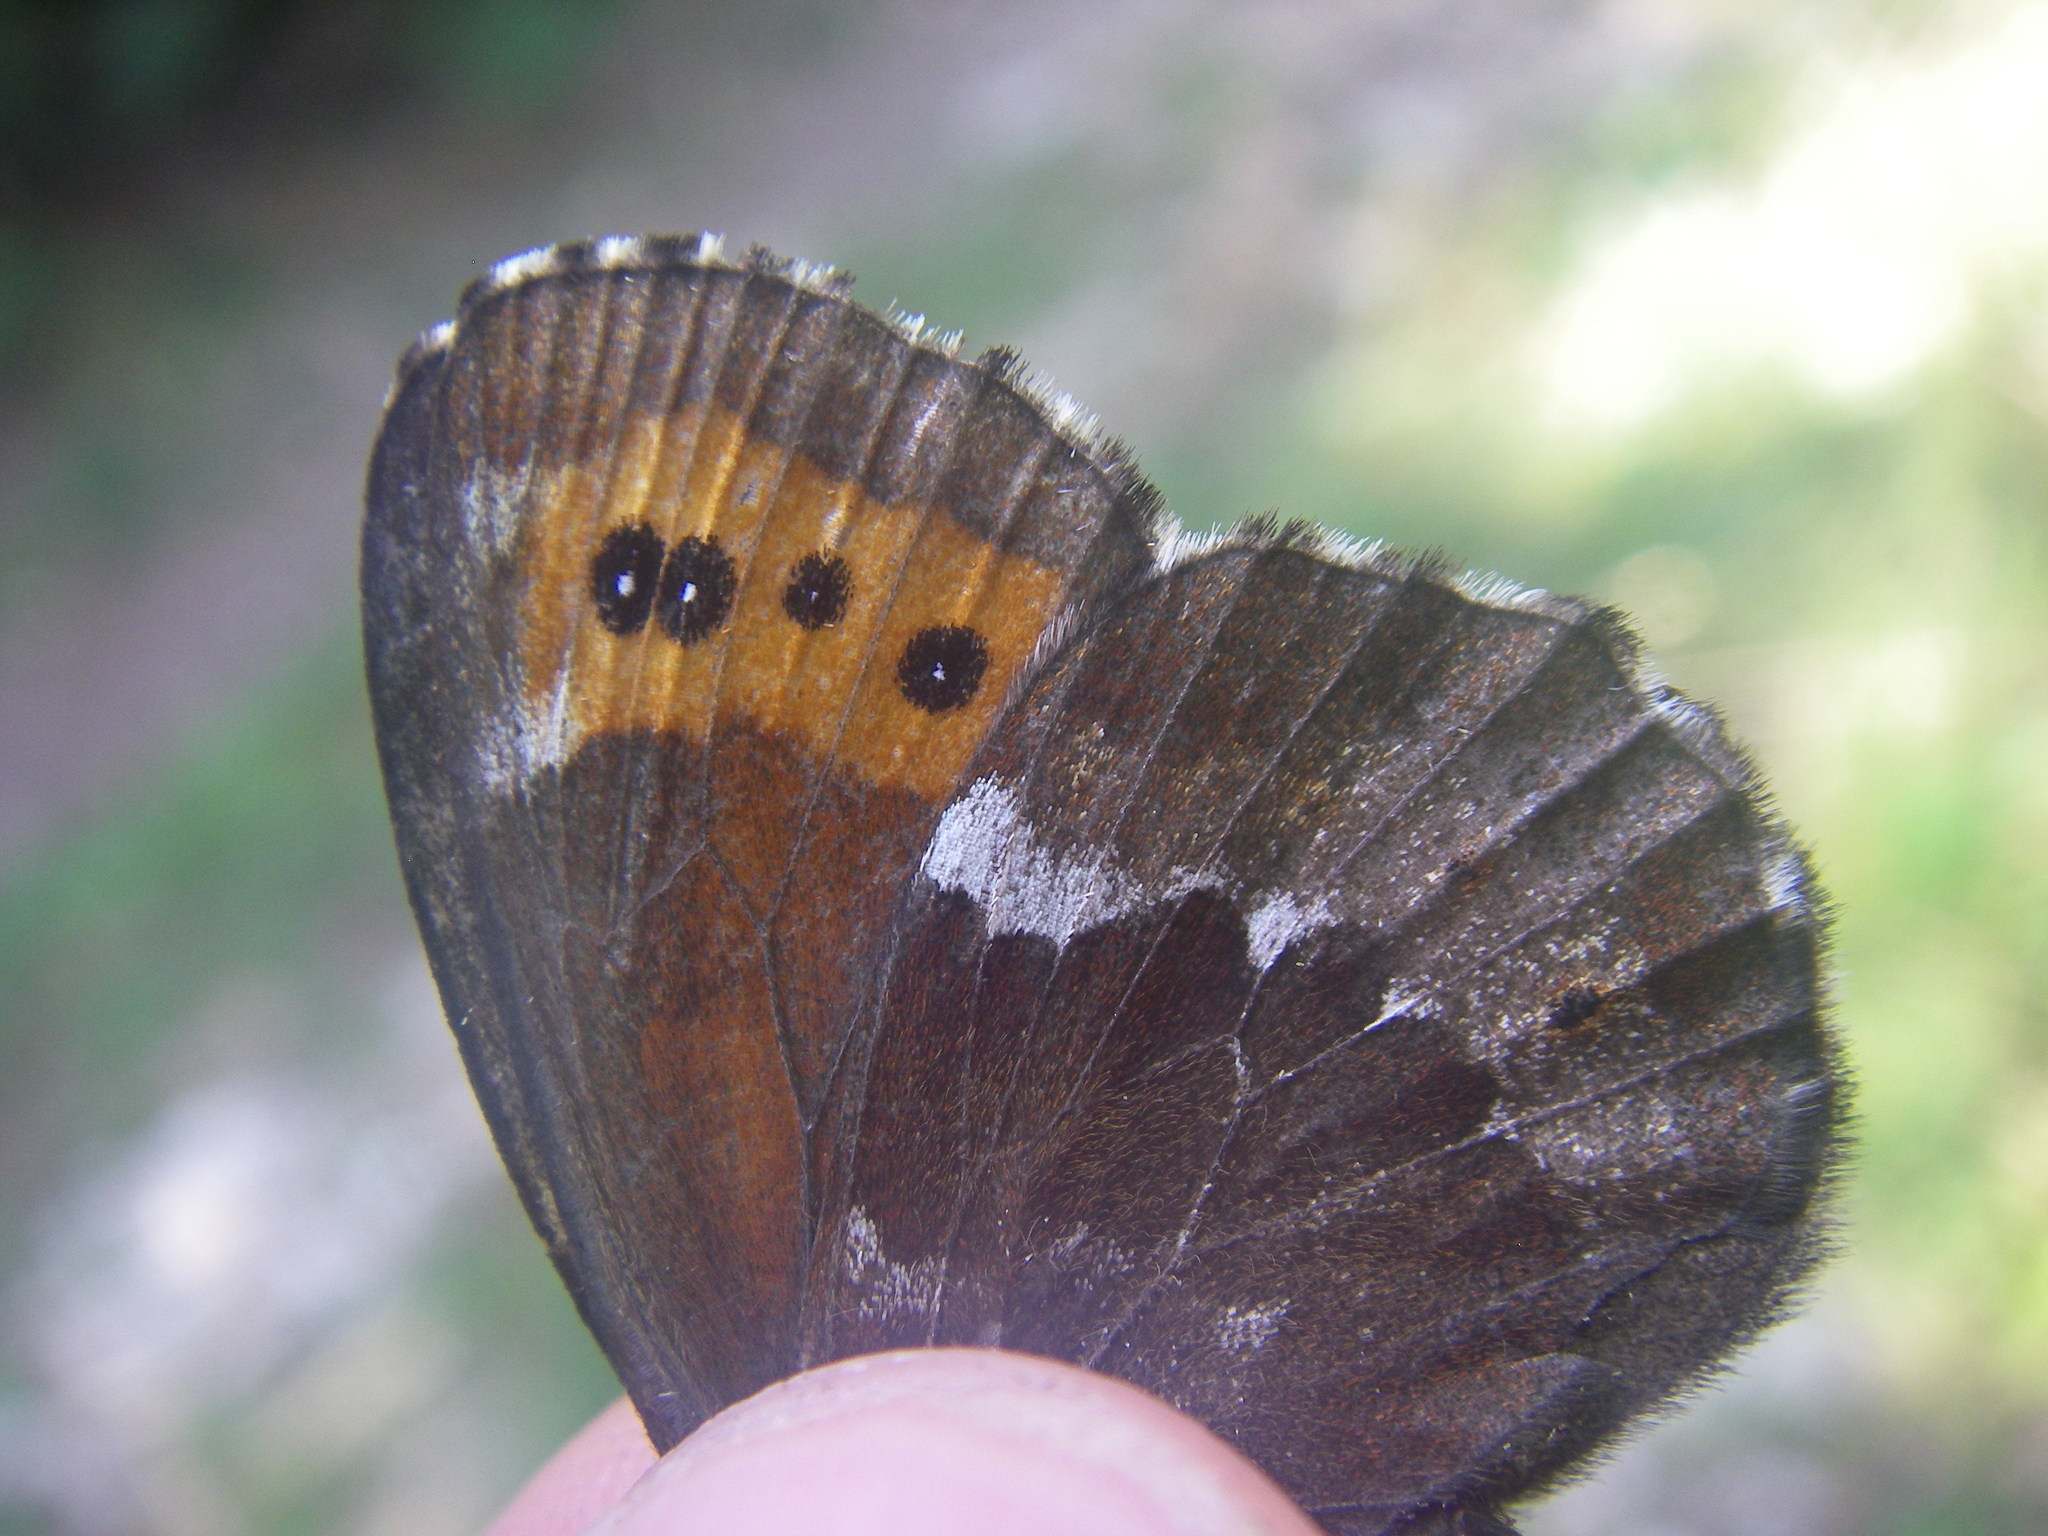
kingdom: Animalia
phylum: Arthropoda
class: Insecta
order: Lepidoptera
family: Nymphalidae
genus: Erebia
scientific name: Erebia ligea
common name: Arran brown
